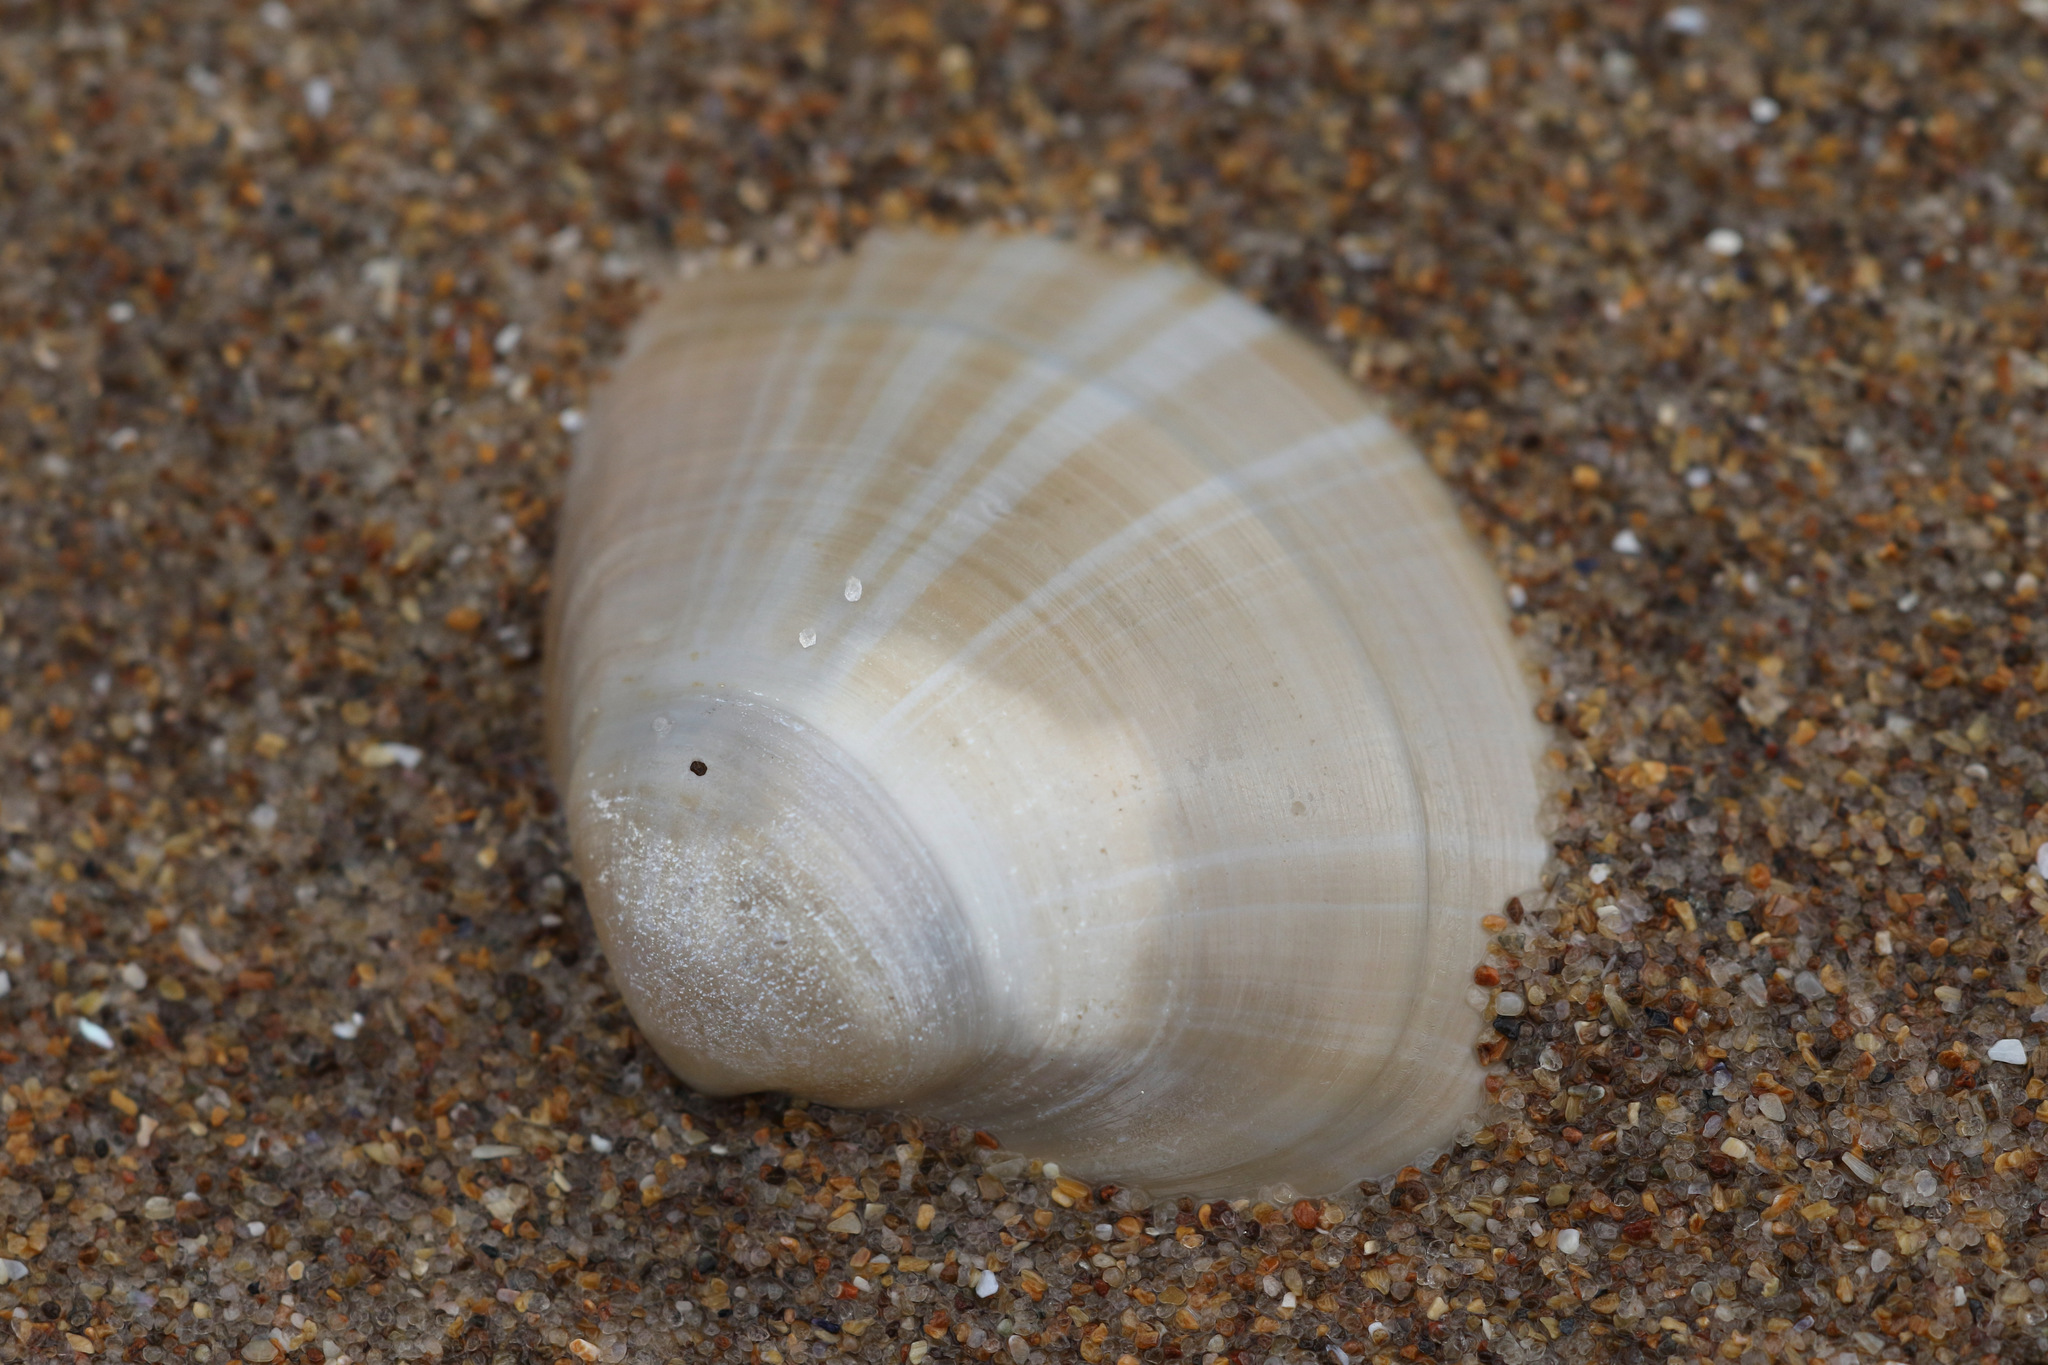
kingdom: Animalia
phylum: Mollusca
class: Bivalvia
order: Venerida
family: Mactridae
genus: Mactra
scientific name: Mactra stultorum
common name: Rayed trough shell
